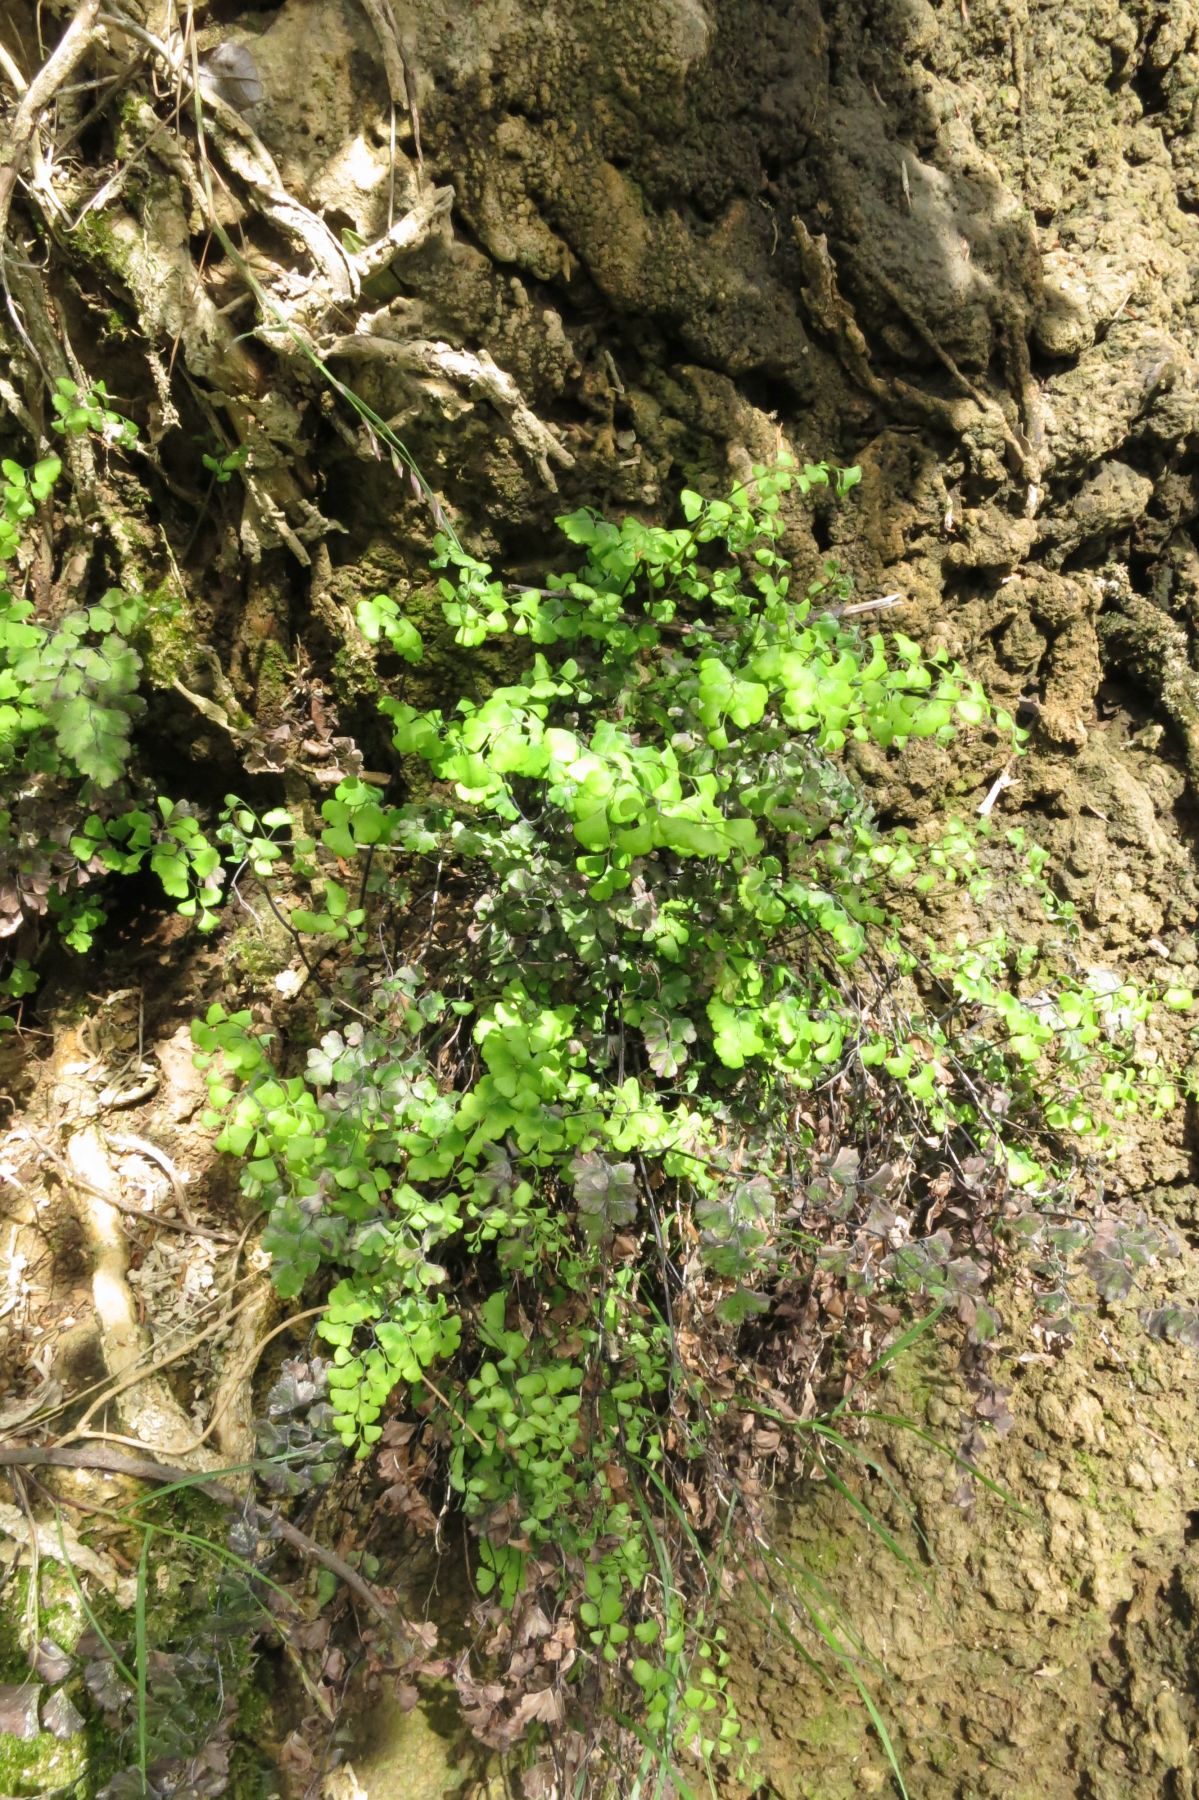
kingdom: Plantae
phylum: Tracheophyta
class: Polypodiopsida
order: Polypodiales
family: Pteridaceae
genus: Adiantum
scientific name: Adiantum capillus-veneris
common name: Maidenhair fern
